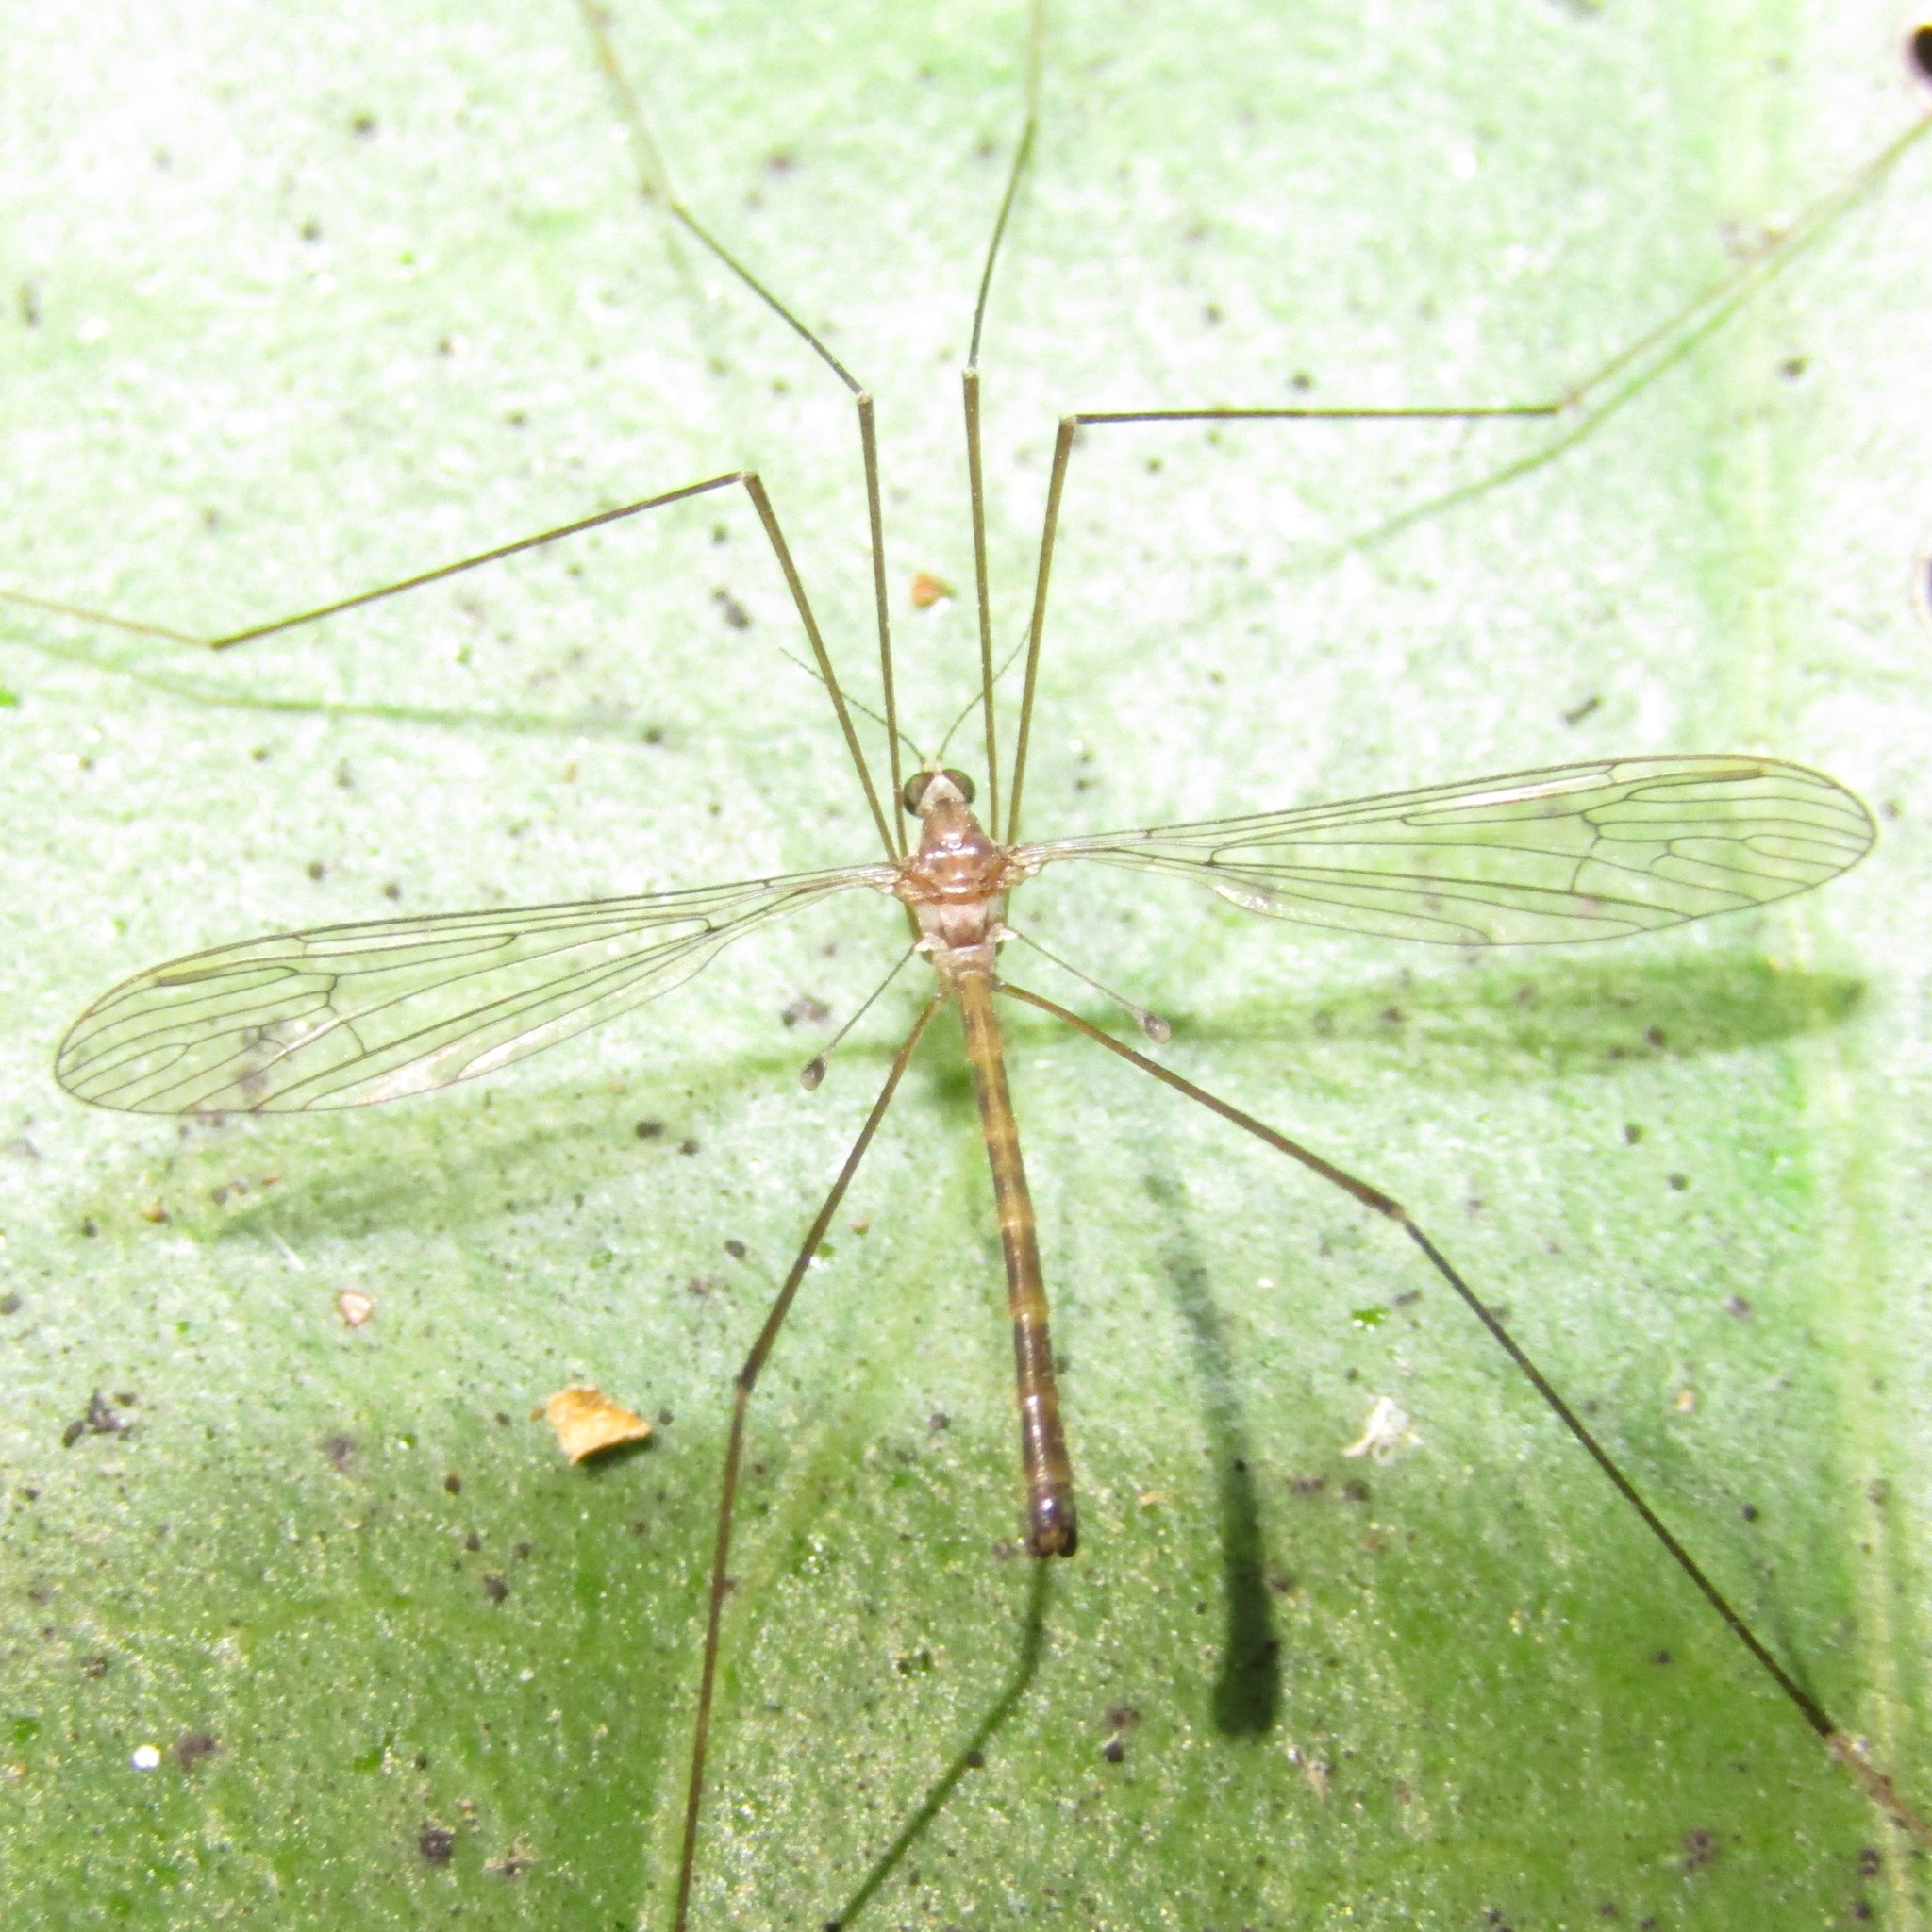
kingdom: Animalia
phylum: Arthropoda
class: Insecta
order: Diptera
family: Limoniidae
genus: Limnophilella
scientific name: Limnophilella delicatula
